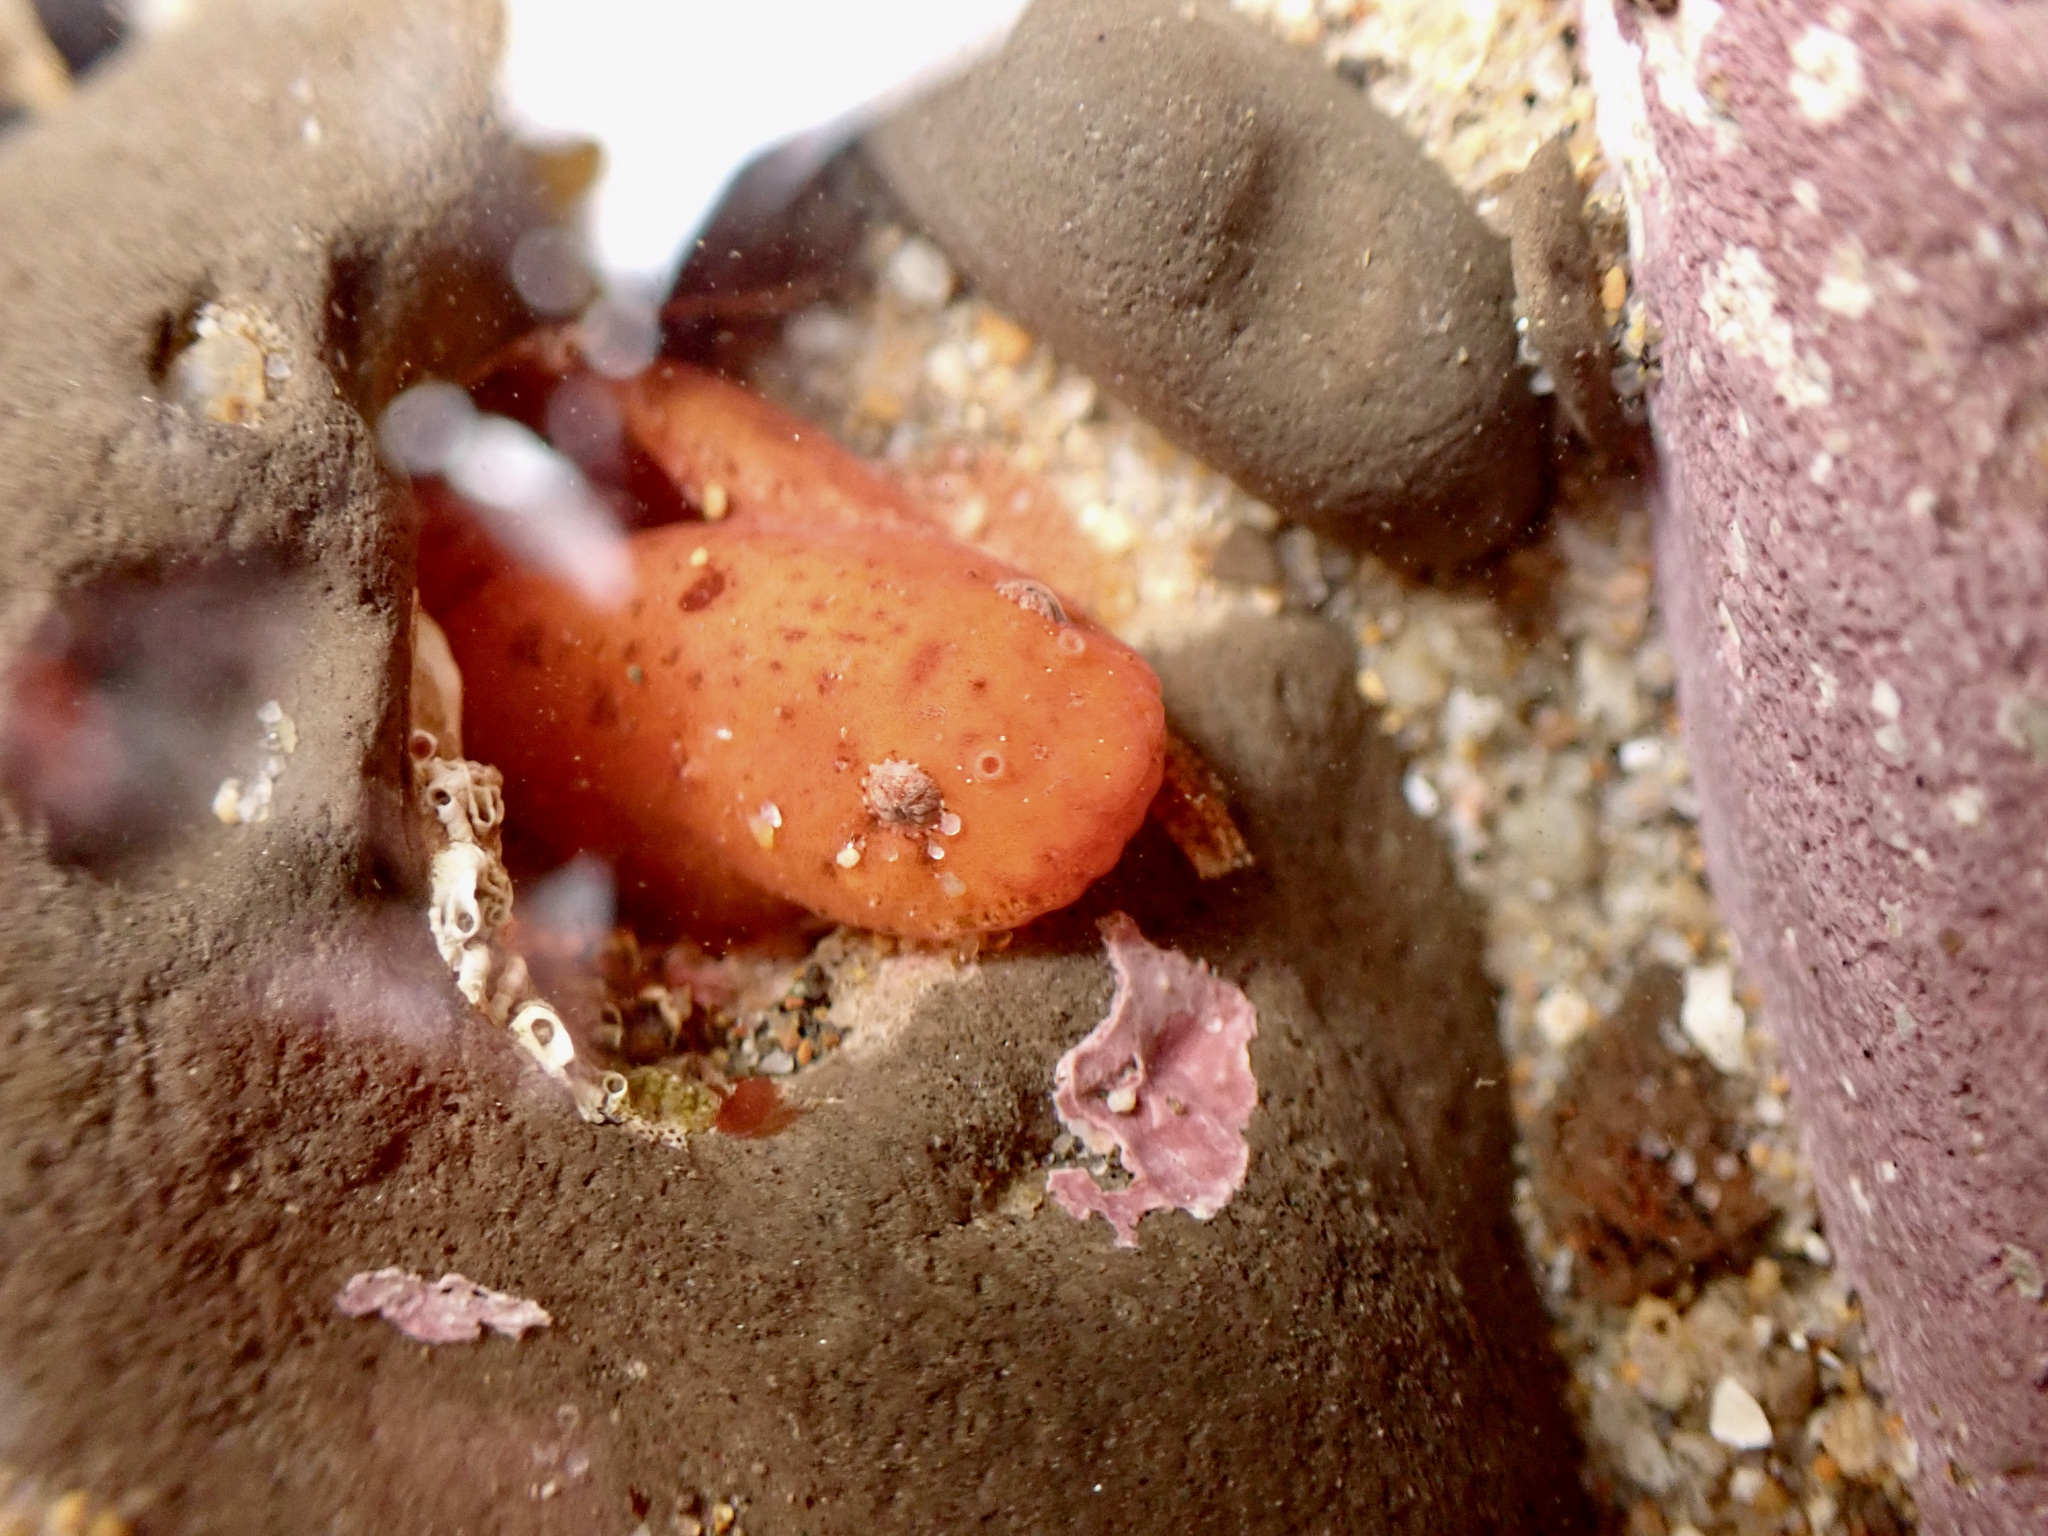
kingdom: Animalia
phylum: Chordata
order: Scorpaeniformes
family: Liparidae
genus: Liparis
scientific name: Liparis mucosus
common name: Slimy snailfish
